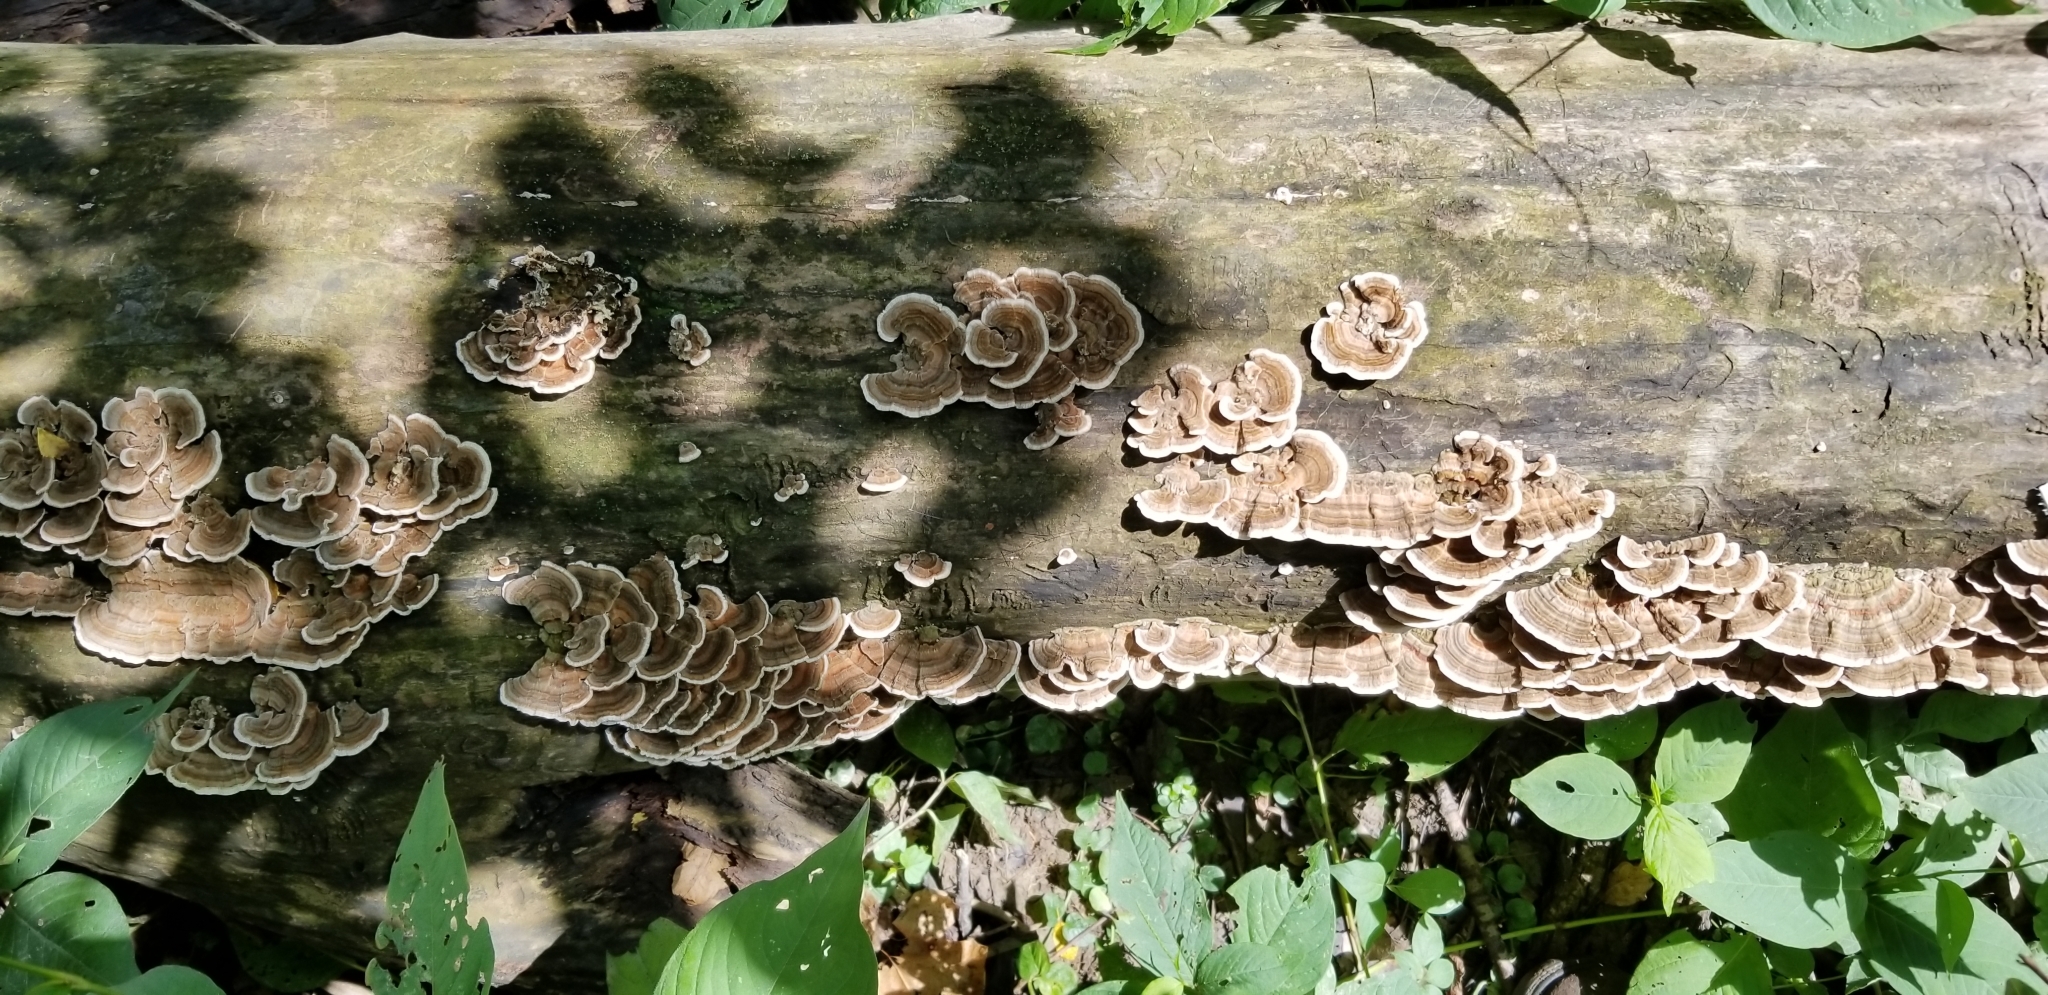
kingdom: Fungi
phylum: Basidiomycota
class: Agaricomycetes
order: Polyporales
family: Polyporaceae
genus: Trametes
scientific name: Trametes versicolor
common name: Turkeytail
